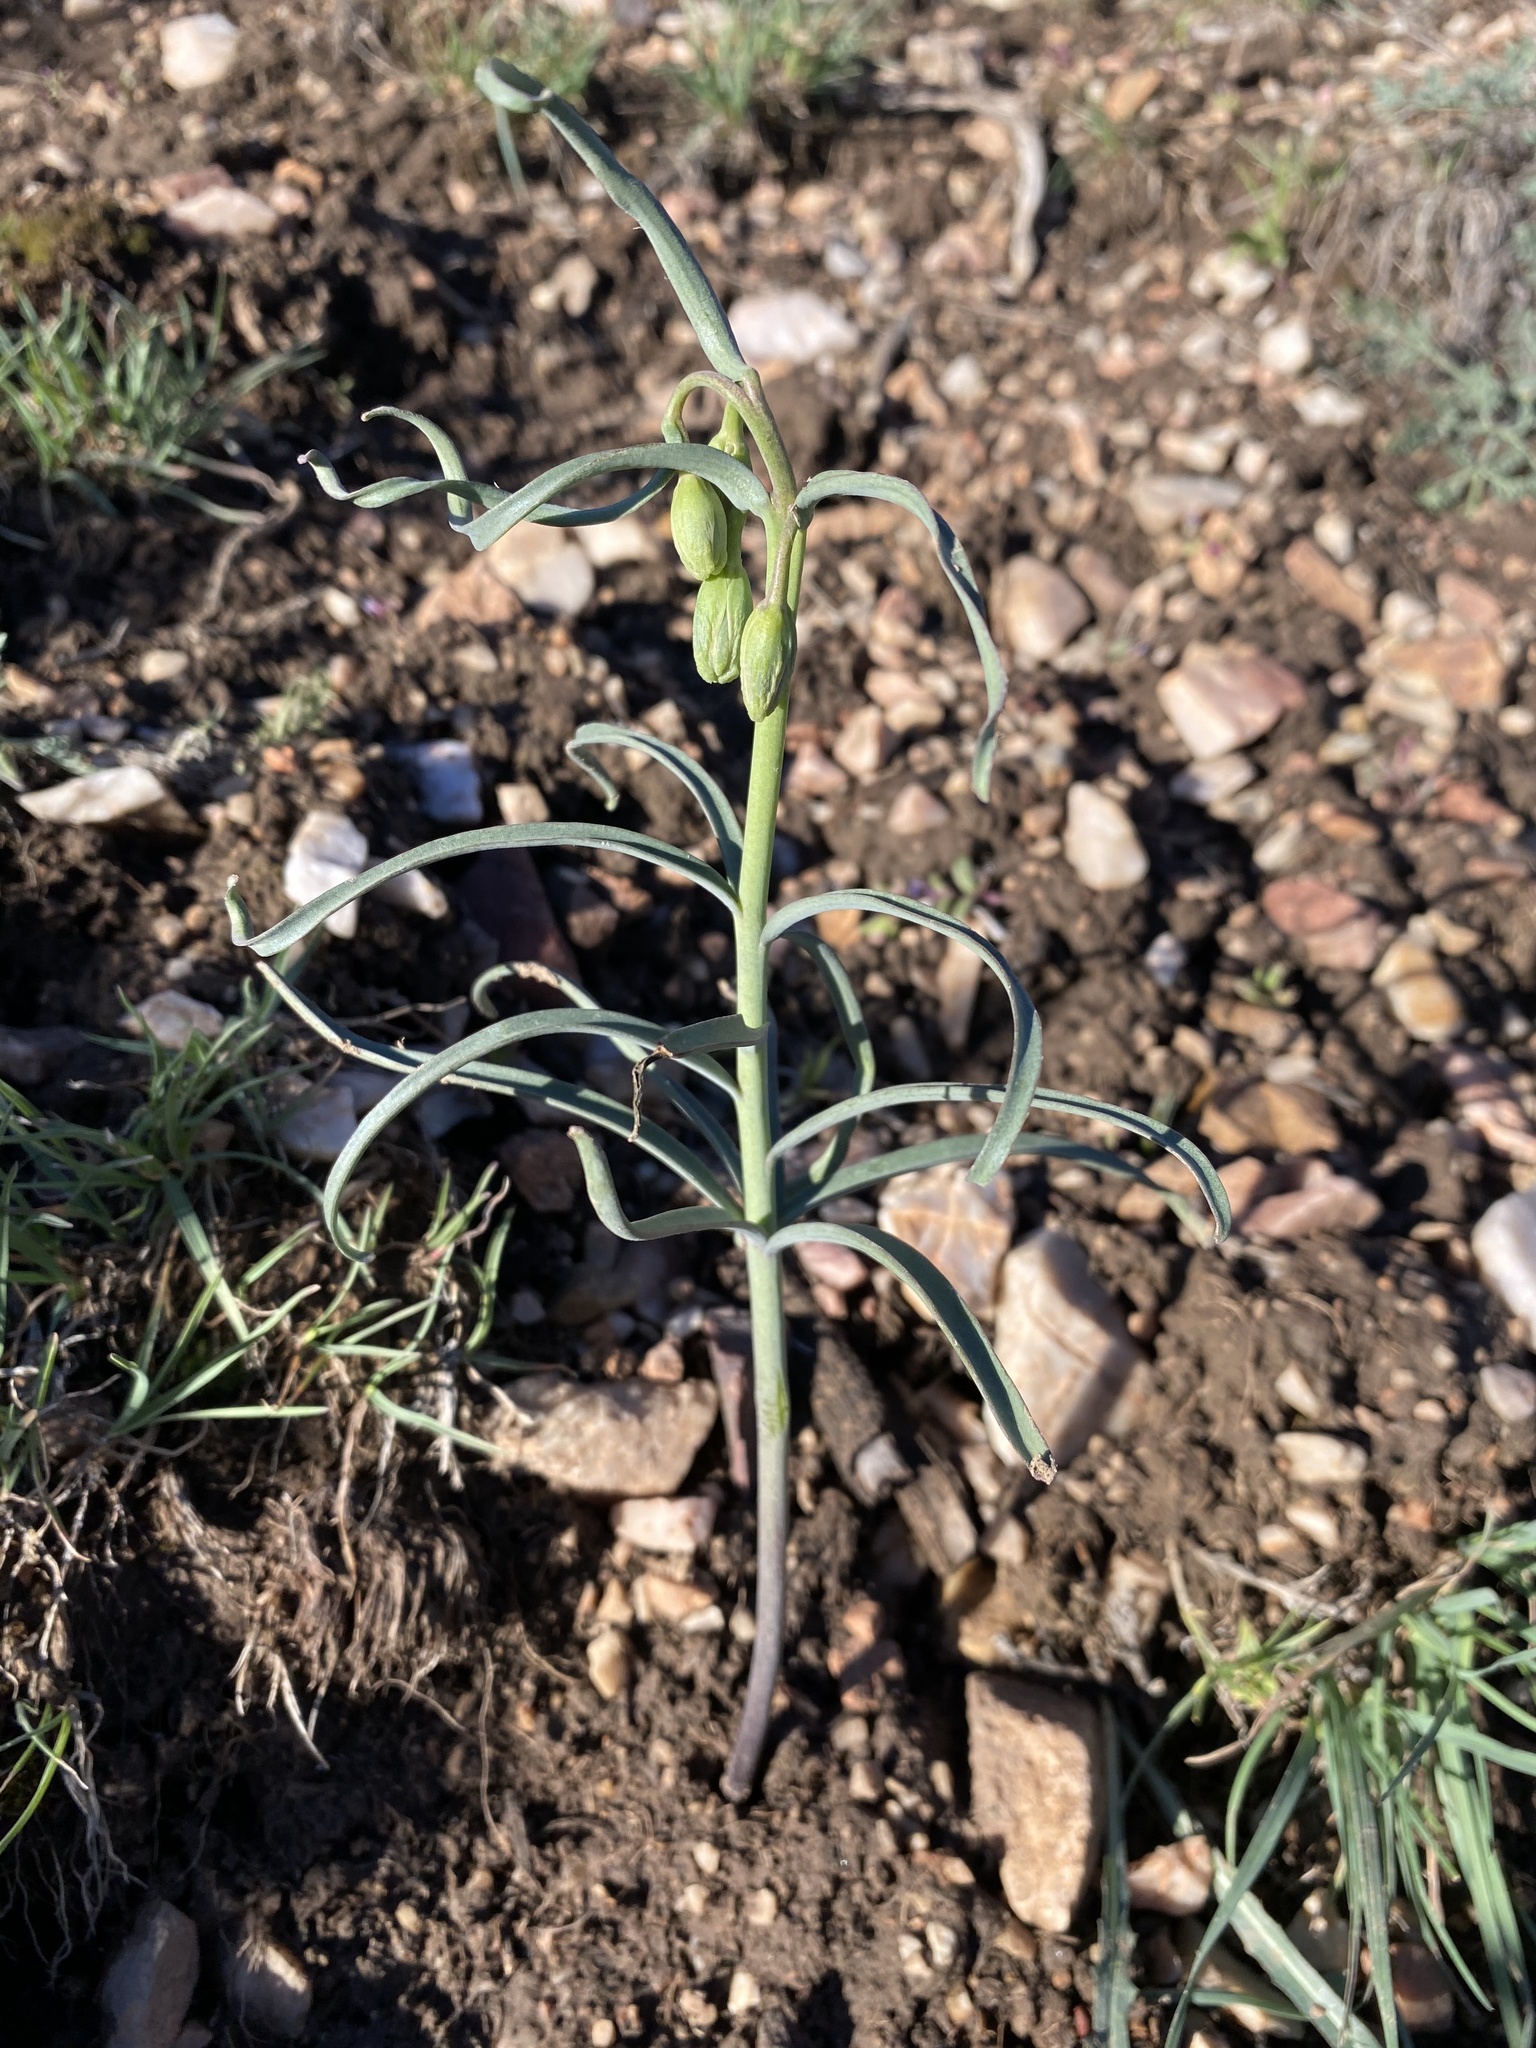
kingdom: Plantae
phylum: Tracheophyta
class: Liliopsida
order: Liliales
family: Liliaceae
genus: Fritillaria
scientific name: Fritillaria atropurpurea
